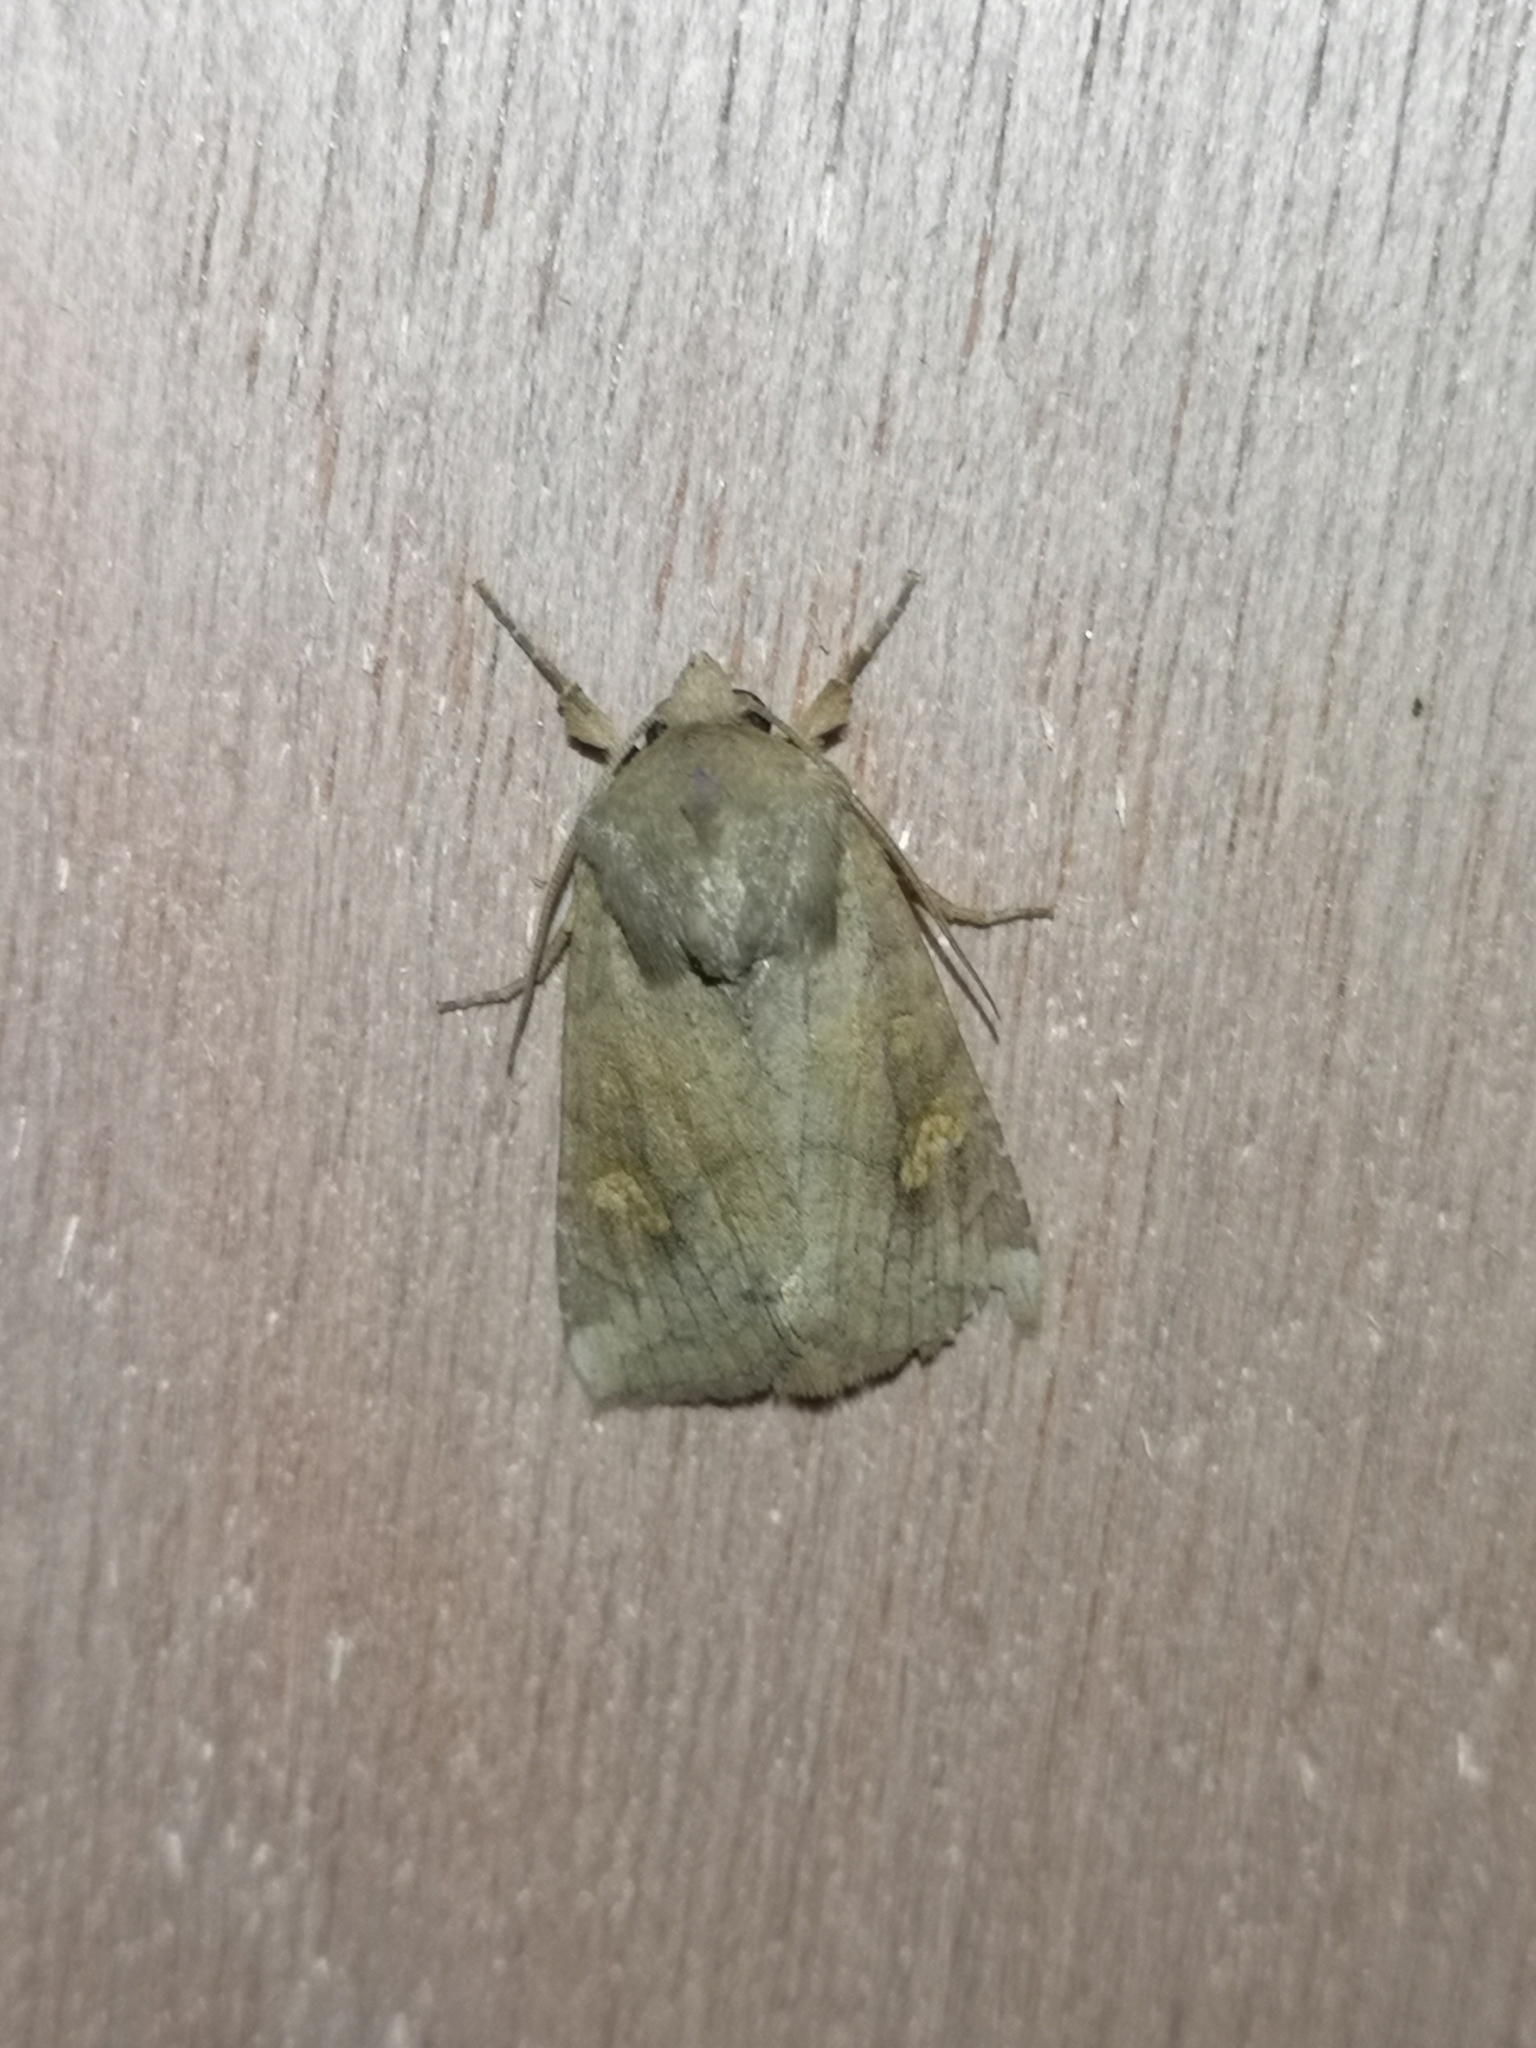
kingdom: Animalia
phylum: Arthropoda
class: Insecta
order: Lepidoptera
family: Noctuidae
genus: Amphipoea
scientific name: Amphipoea
